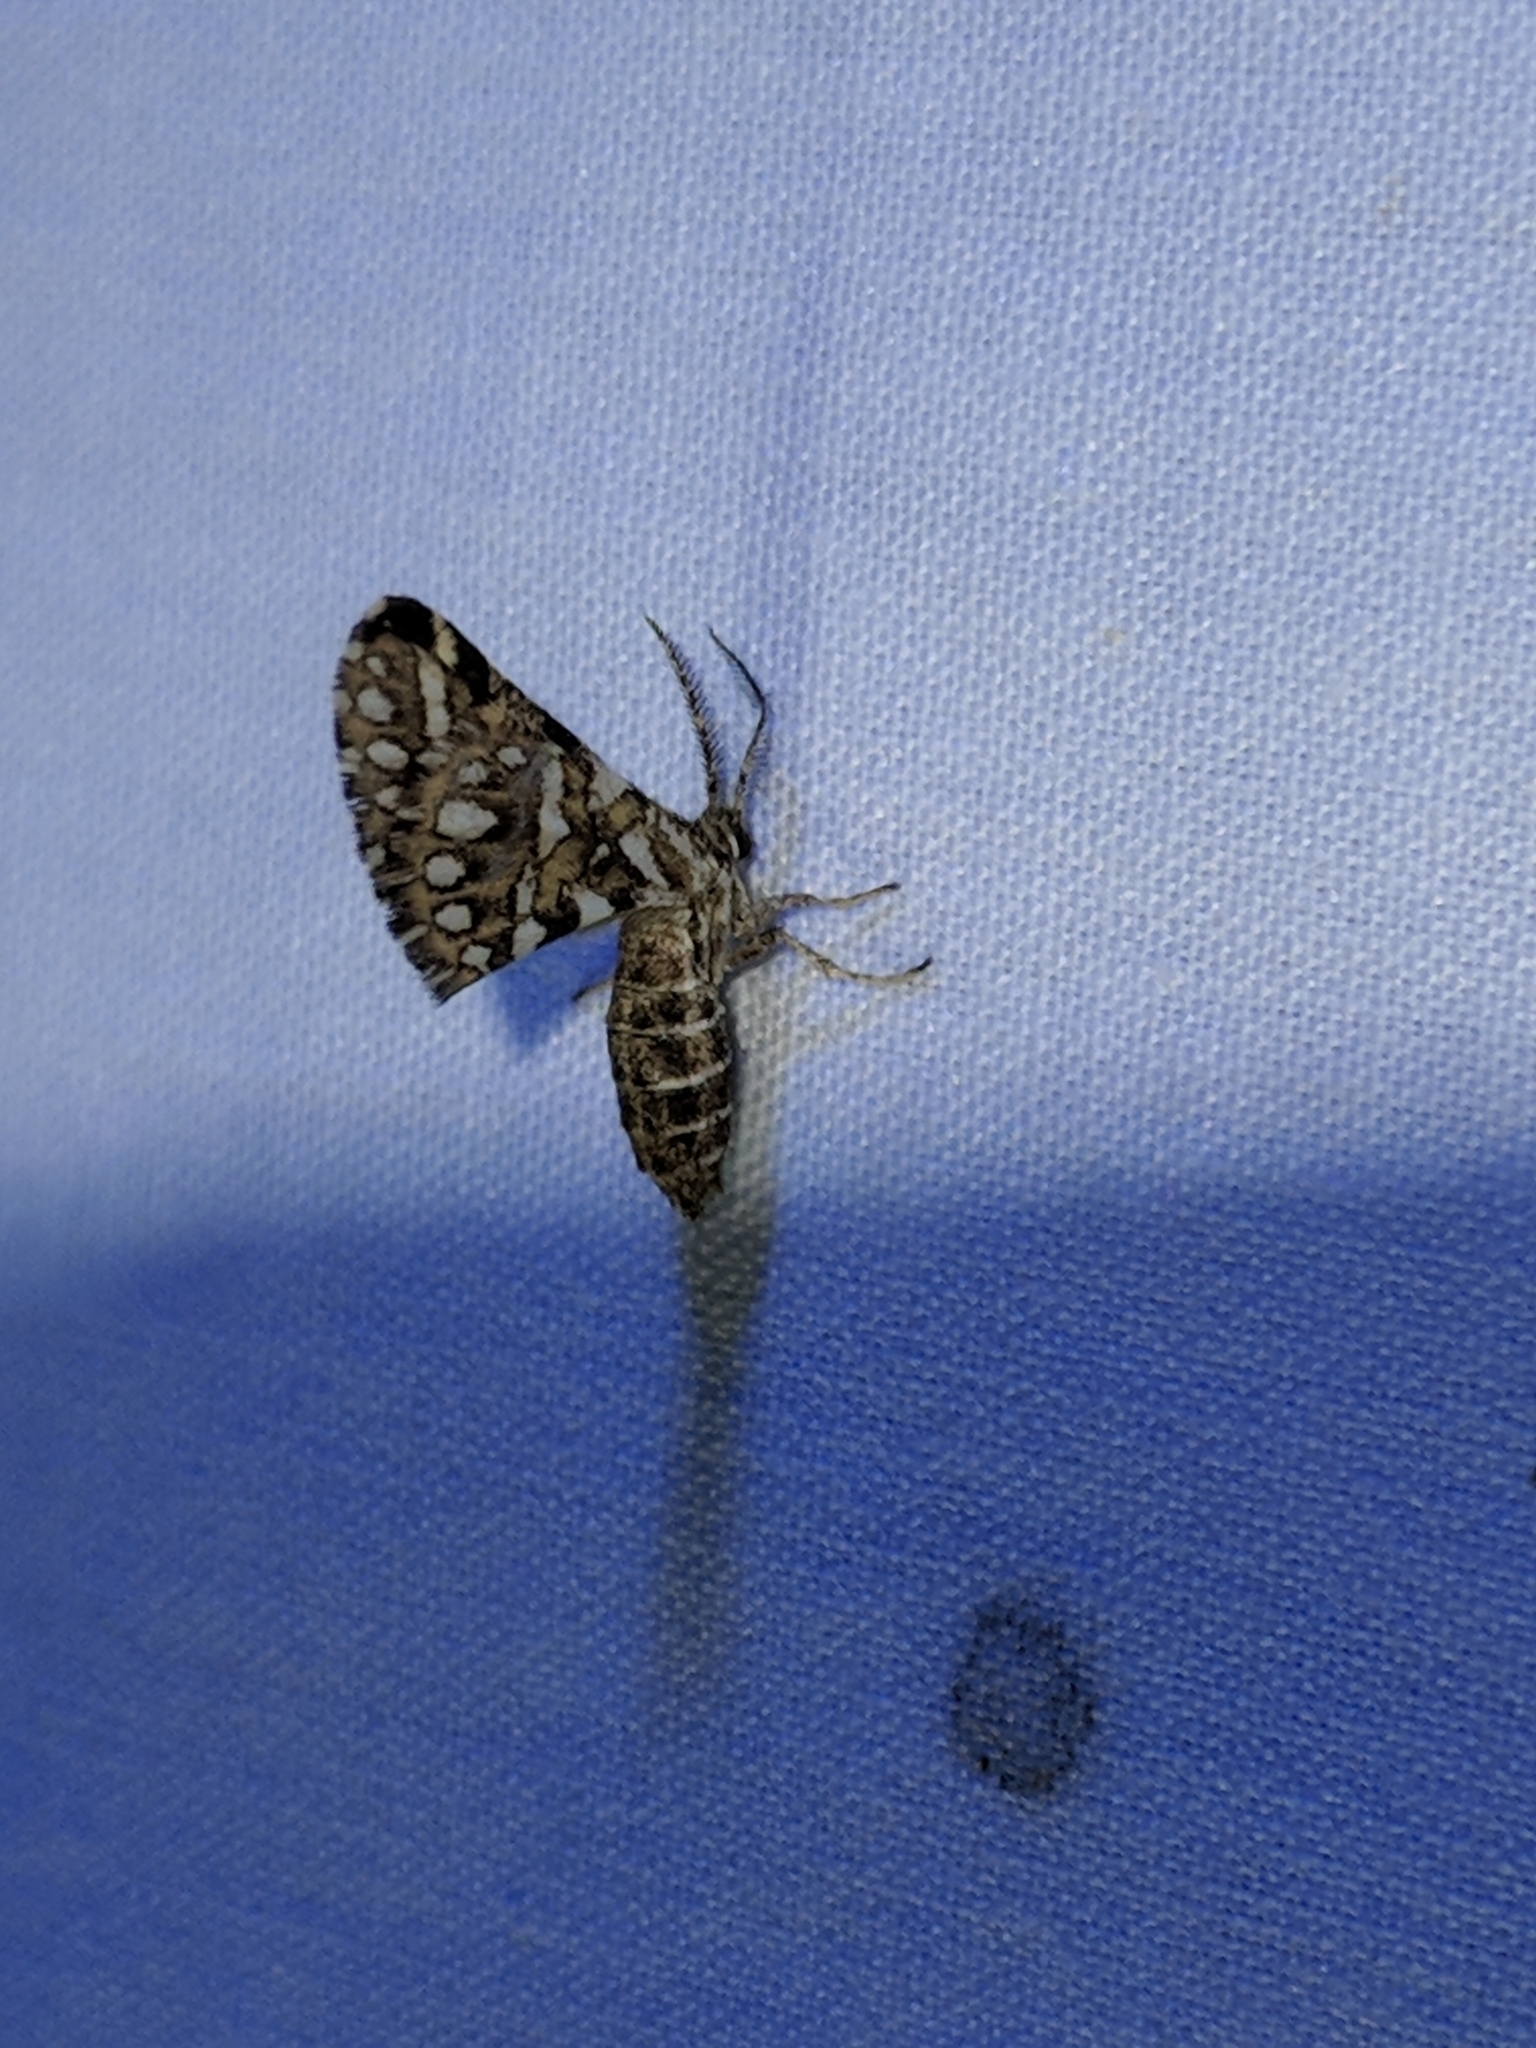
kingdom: Animalia
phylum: Arthropoda
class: Insecta
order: Lepidoptera
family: Geometridae
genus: Narraga
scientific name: Narraga fimetaria
